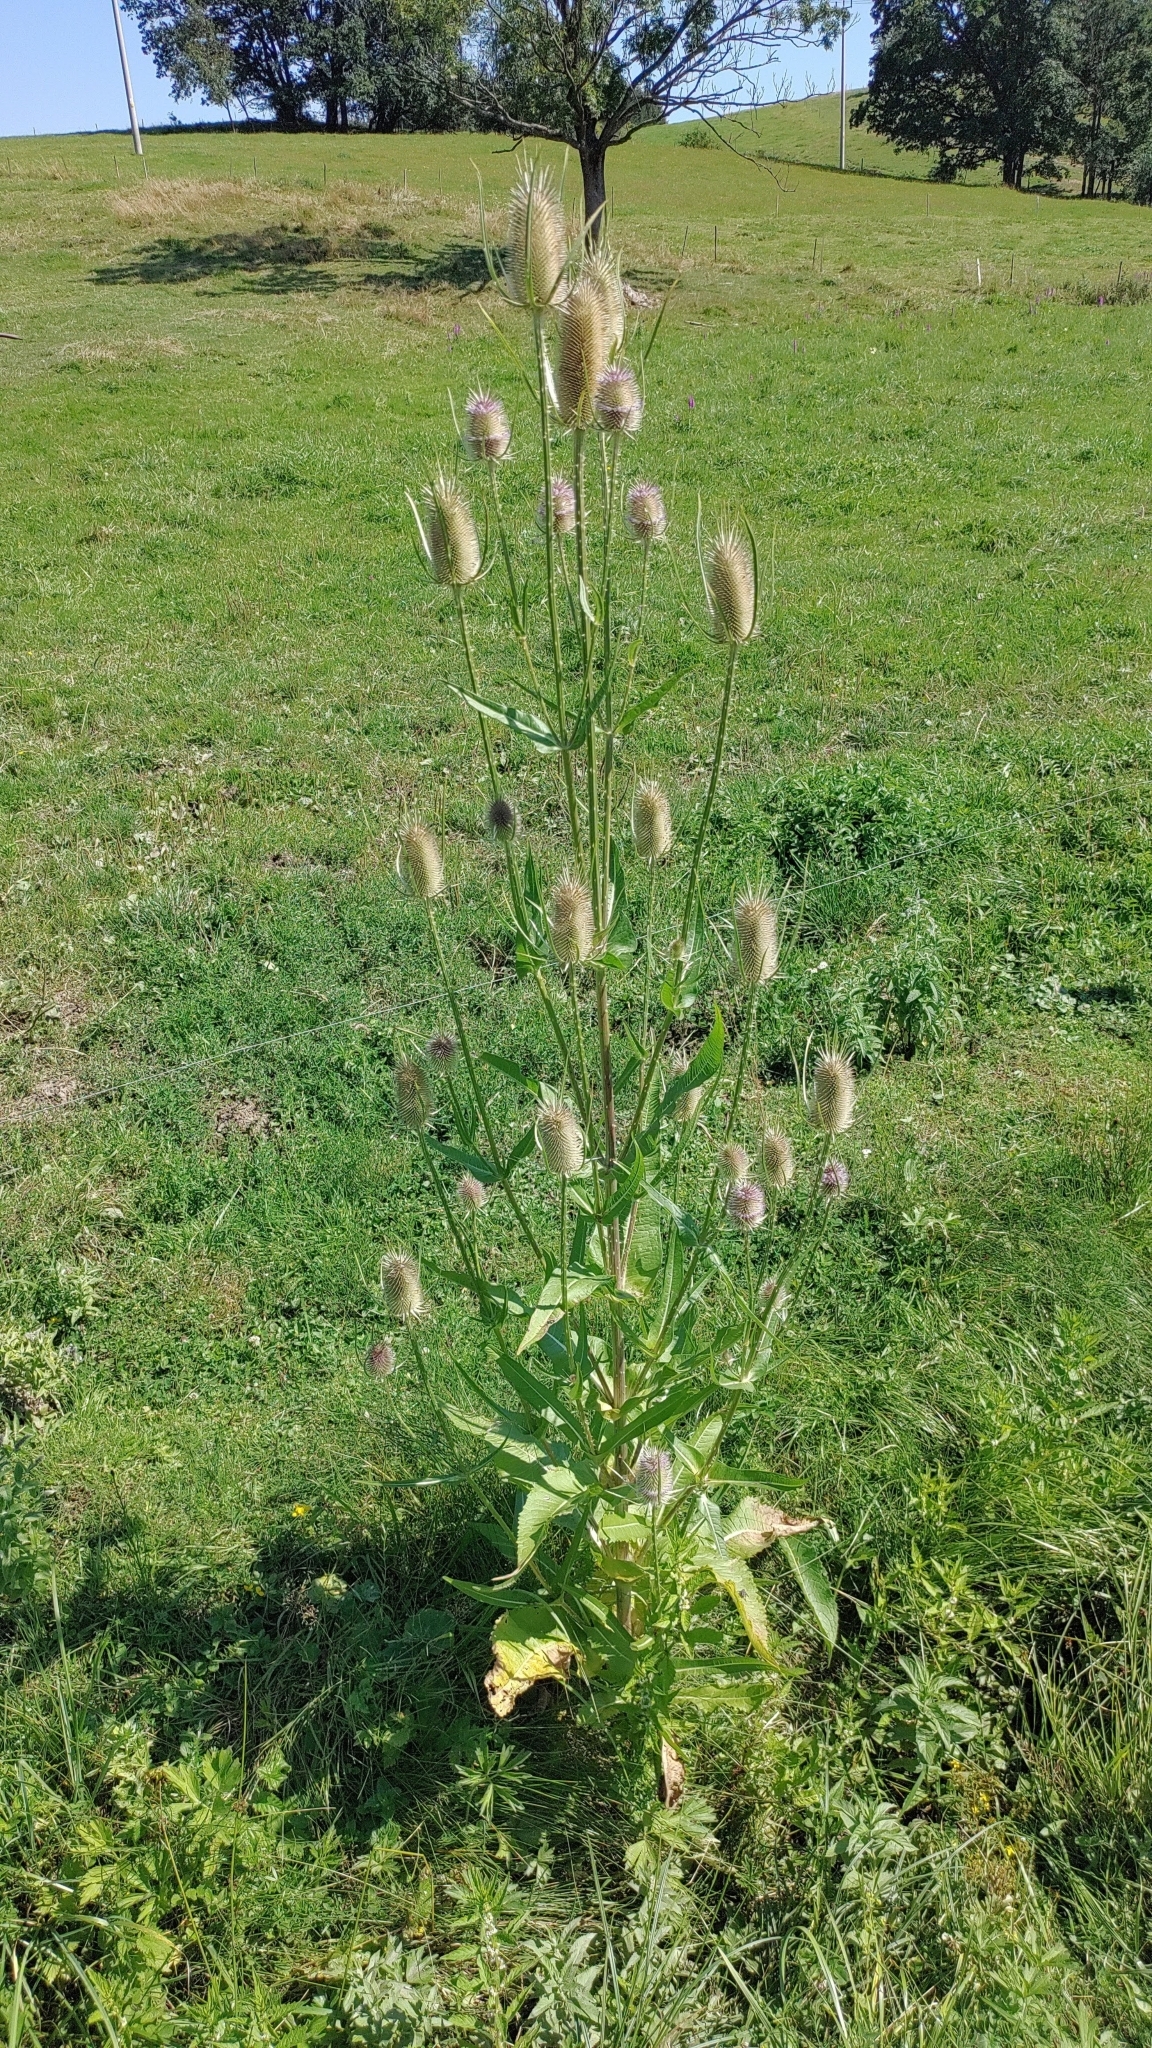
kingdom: Plantae
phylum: Tracheophyta
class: Magnoliopsida
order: Dipsacales
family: Caprifoliaceae
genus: Dipsacus
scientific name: Dipsacus fullonum
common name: Teasel
